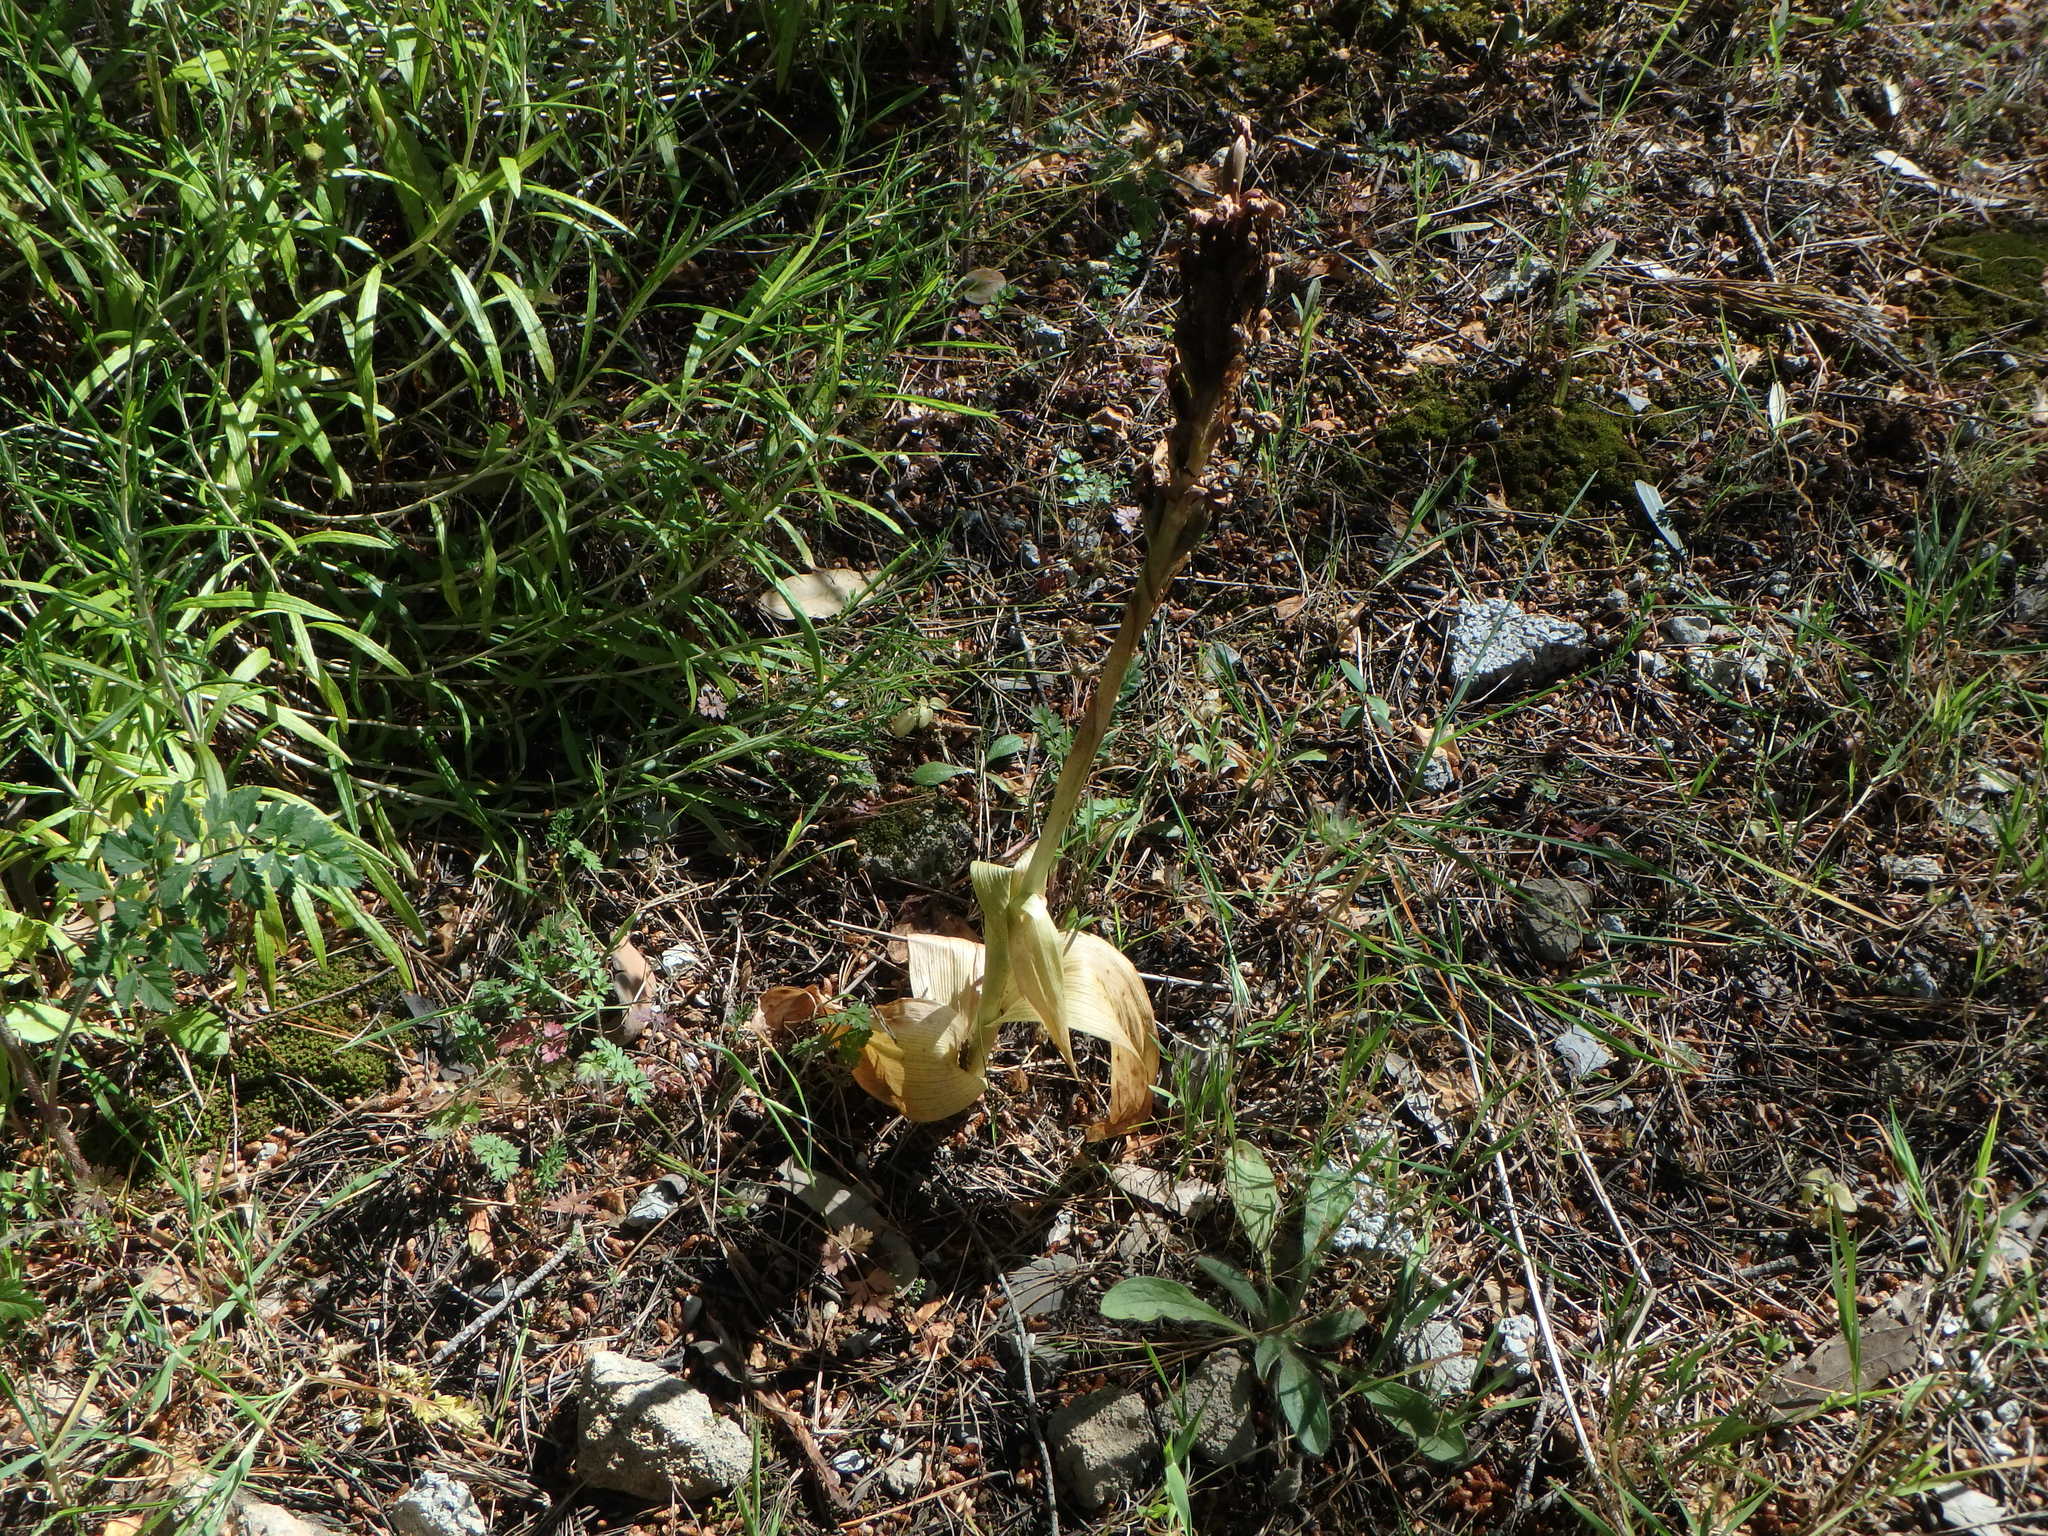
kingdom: Plantae
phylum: Tracheophyta
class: Liliopsida
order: Asparagales
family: Orchidaceae
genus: Himantoglossum
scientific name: Himantoglossum robertianum
